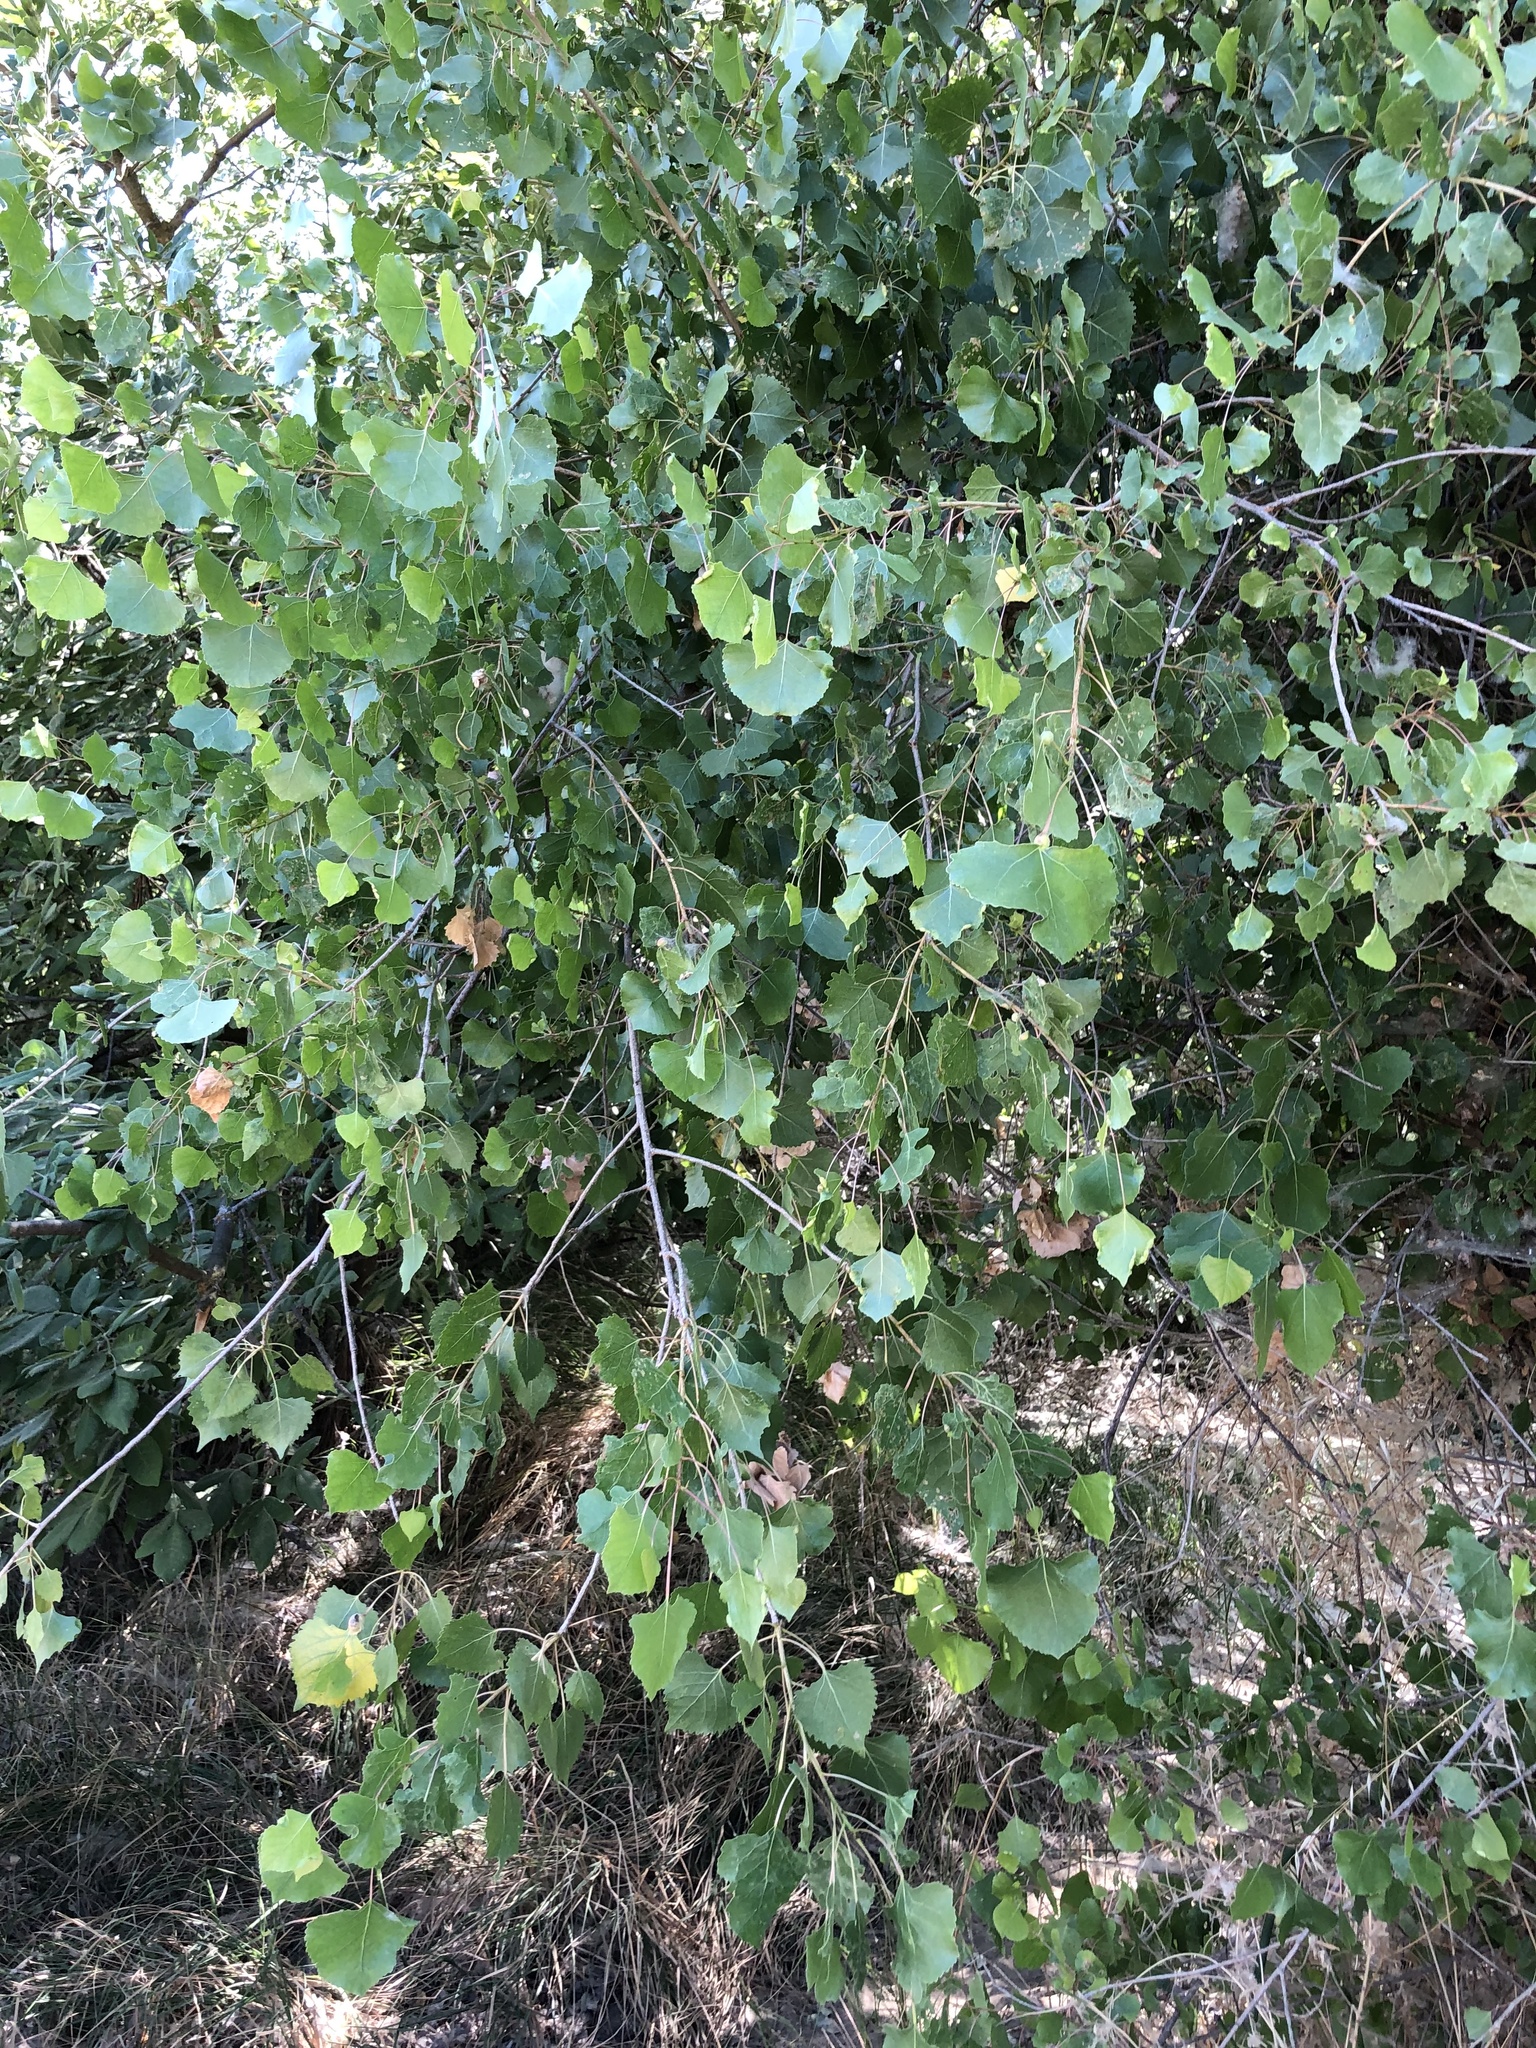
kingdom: Plantae
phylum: Tracheophyta
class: Magnoliopsida
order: Malpighiales
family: Salicaceae
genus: Populus
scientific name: Populus fremontii
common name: Fremont's cottonwood
